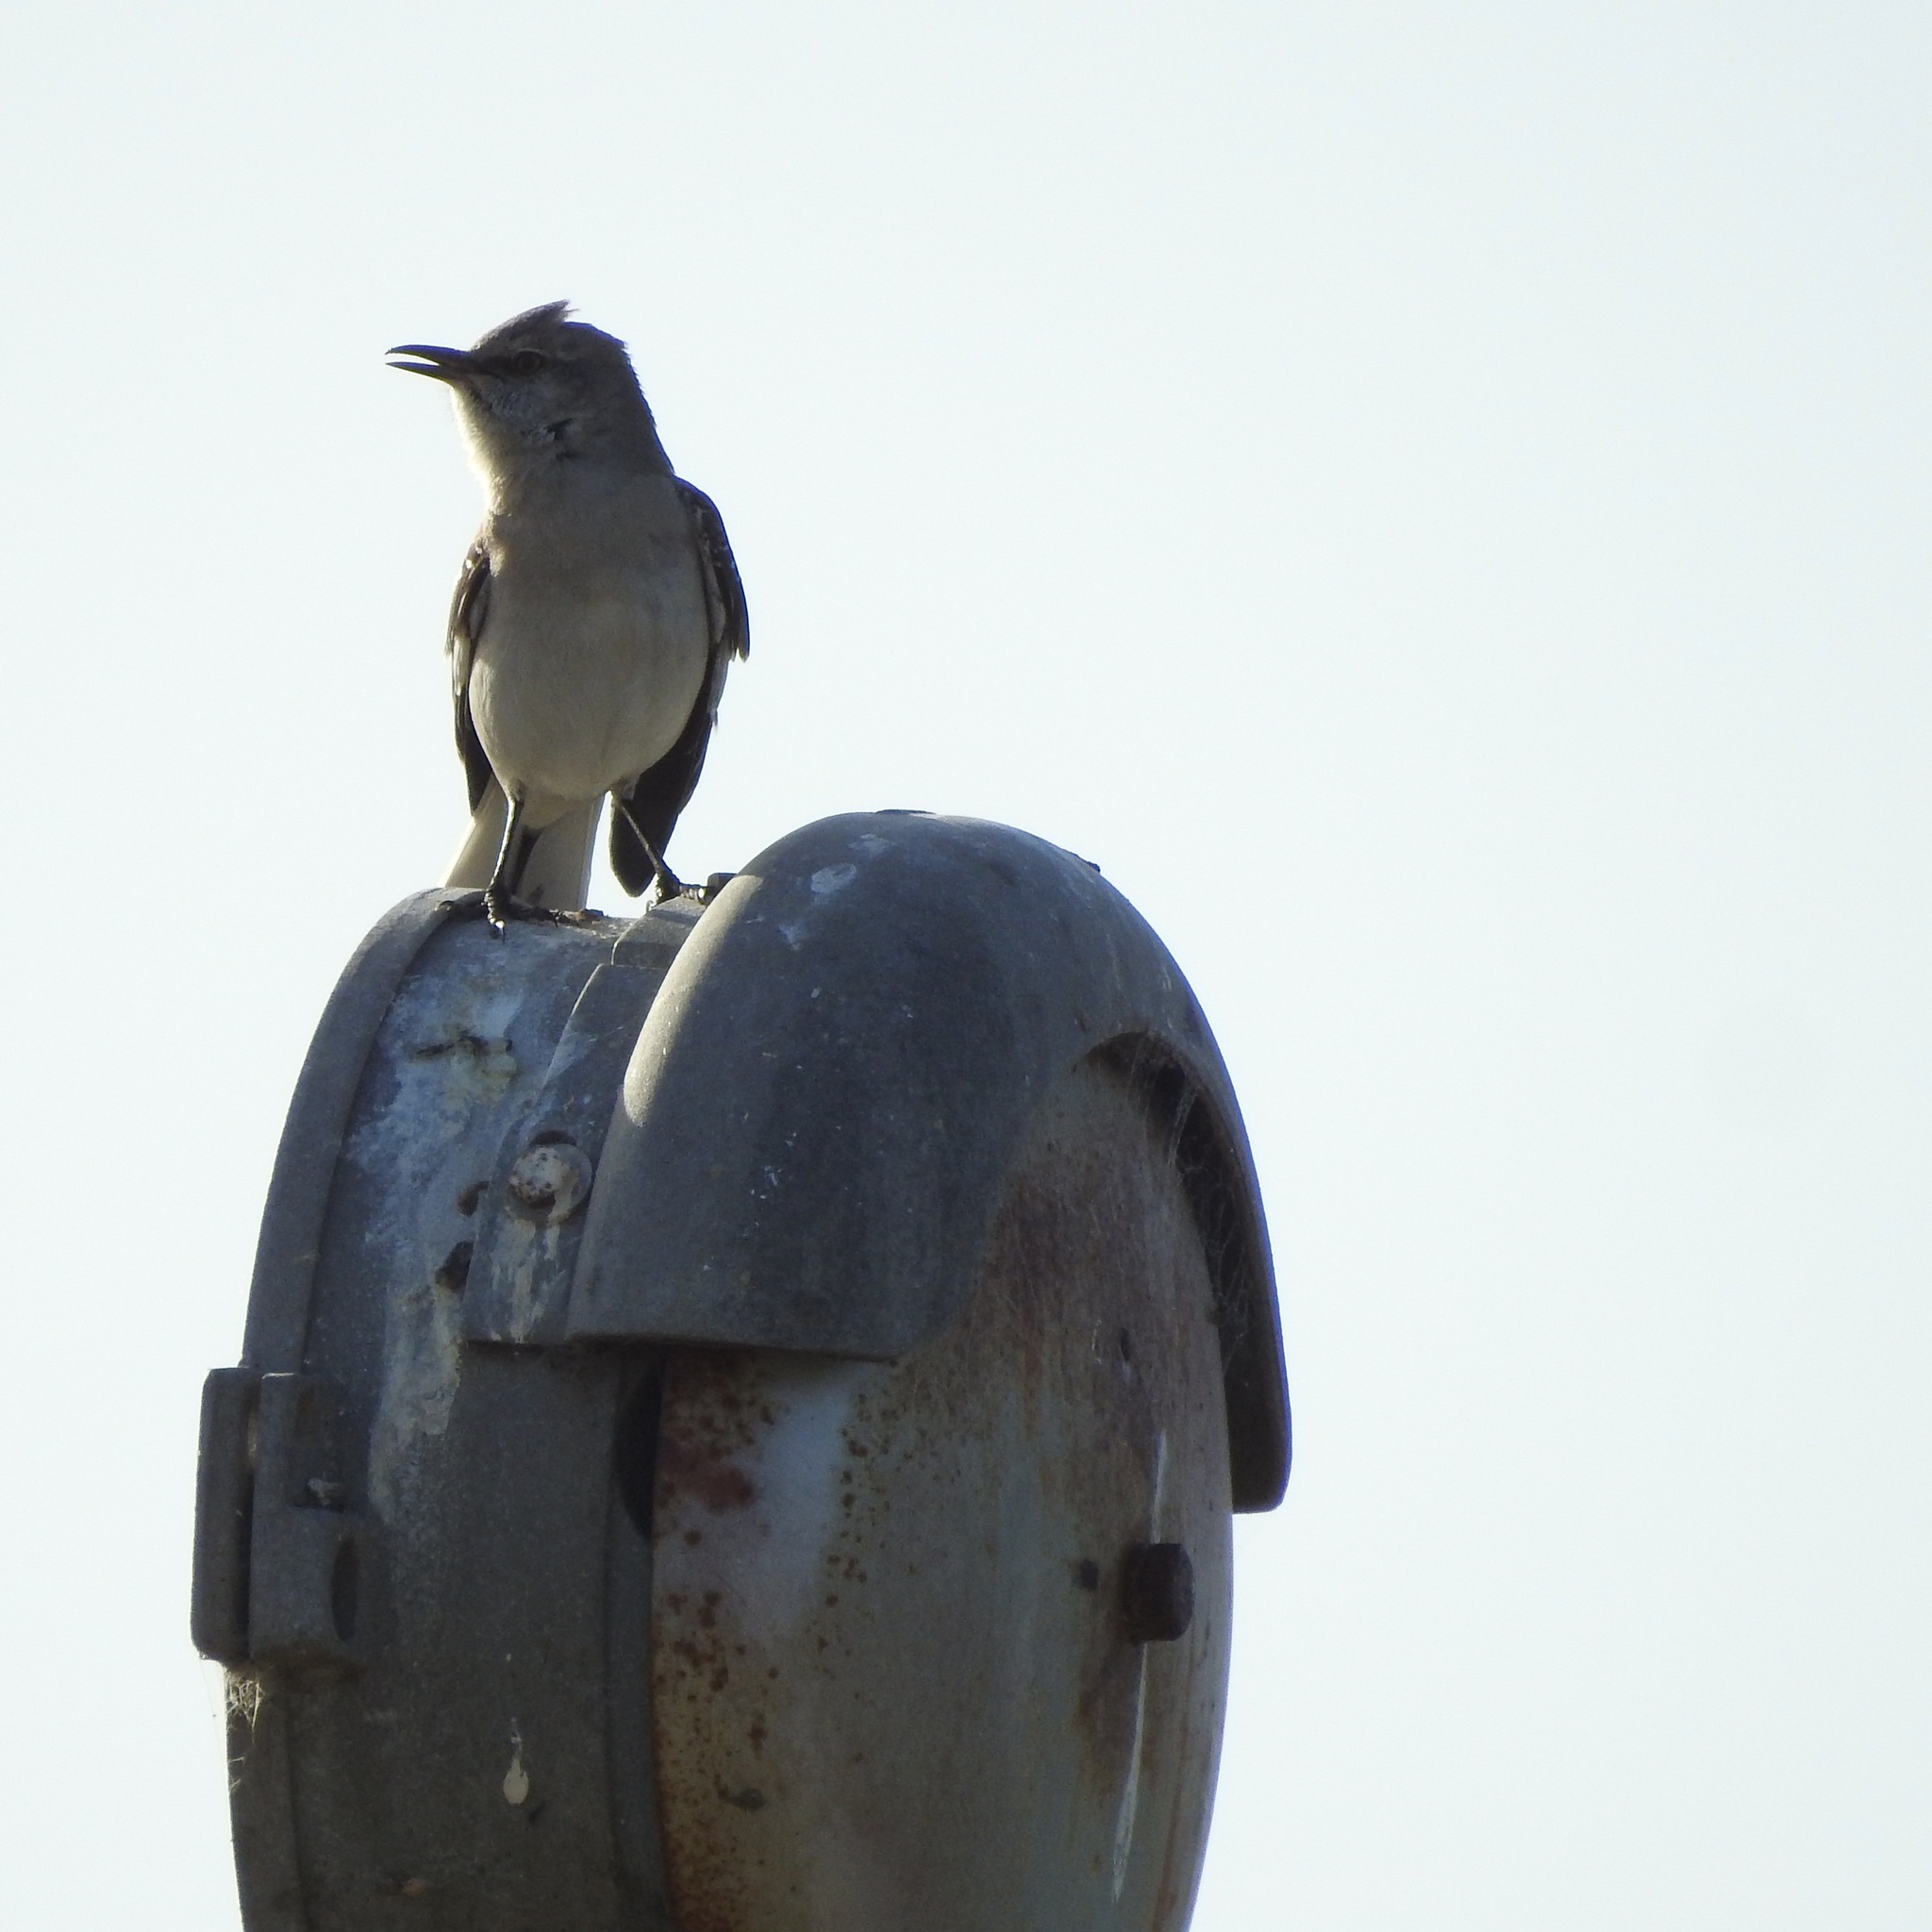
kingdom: Animalia
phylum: Chordata
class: Aves
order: Passeriformes
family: Mimidae
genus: Mimus
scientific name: Mimus polyglottos
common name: Northern mockingbird
